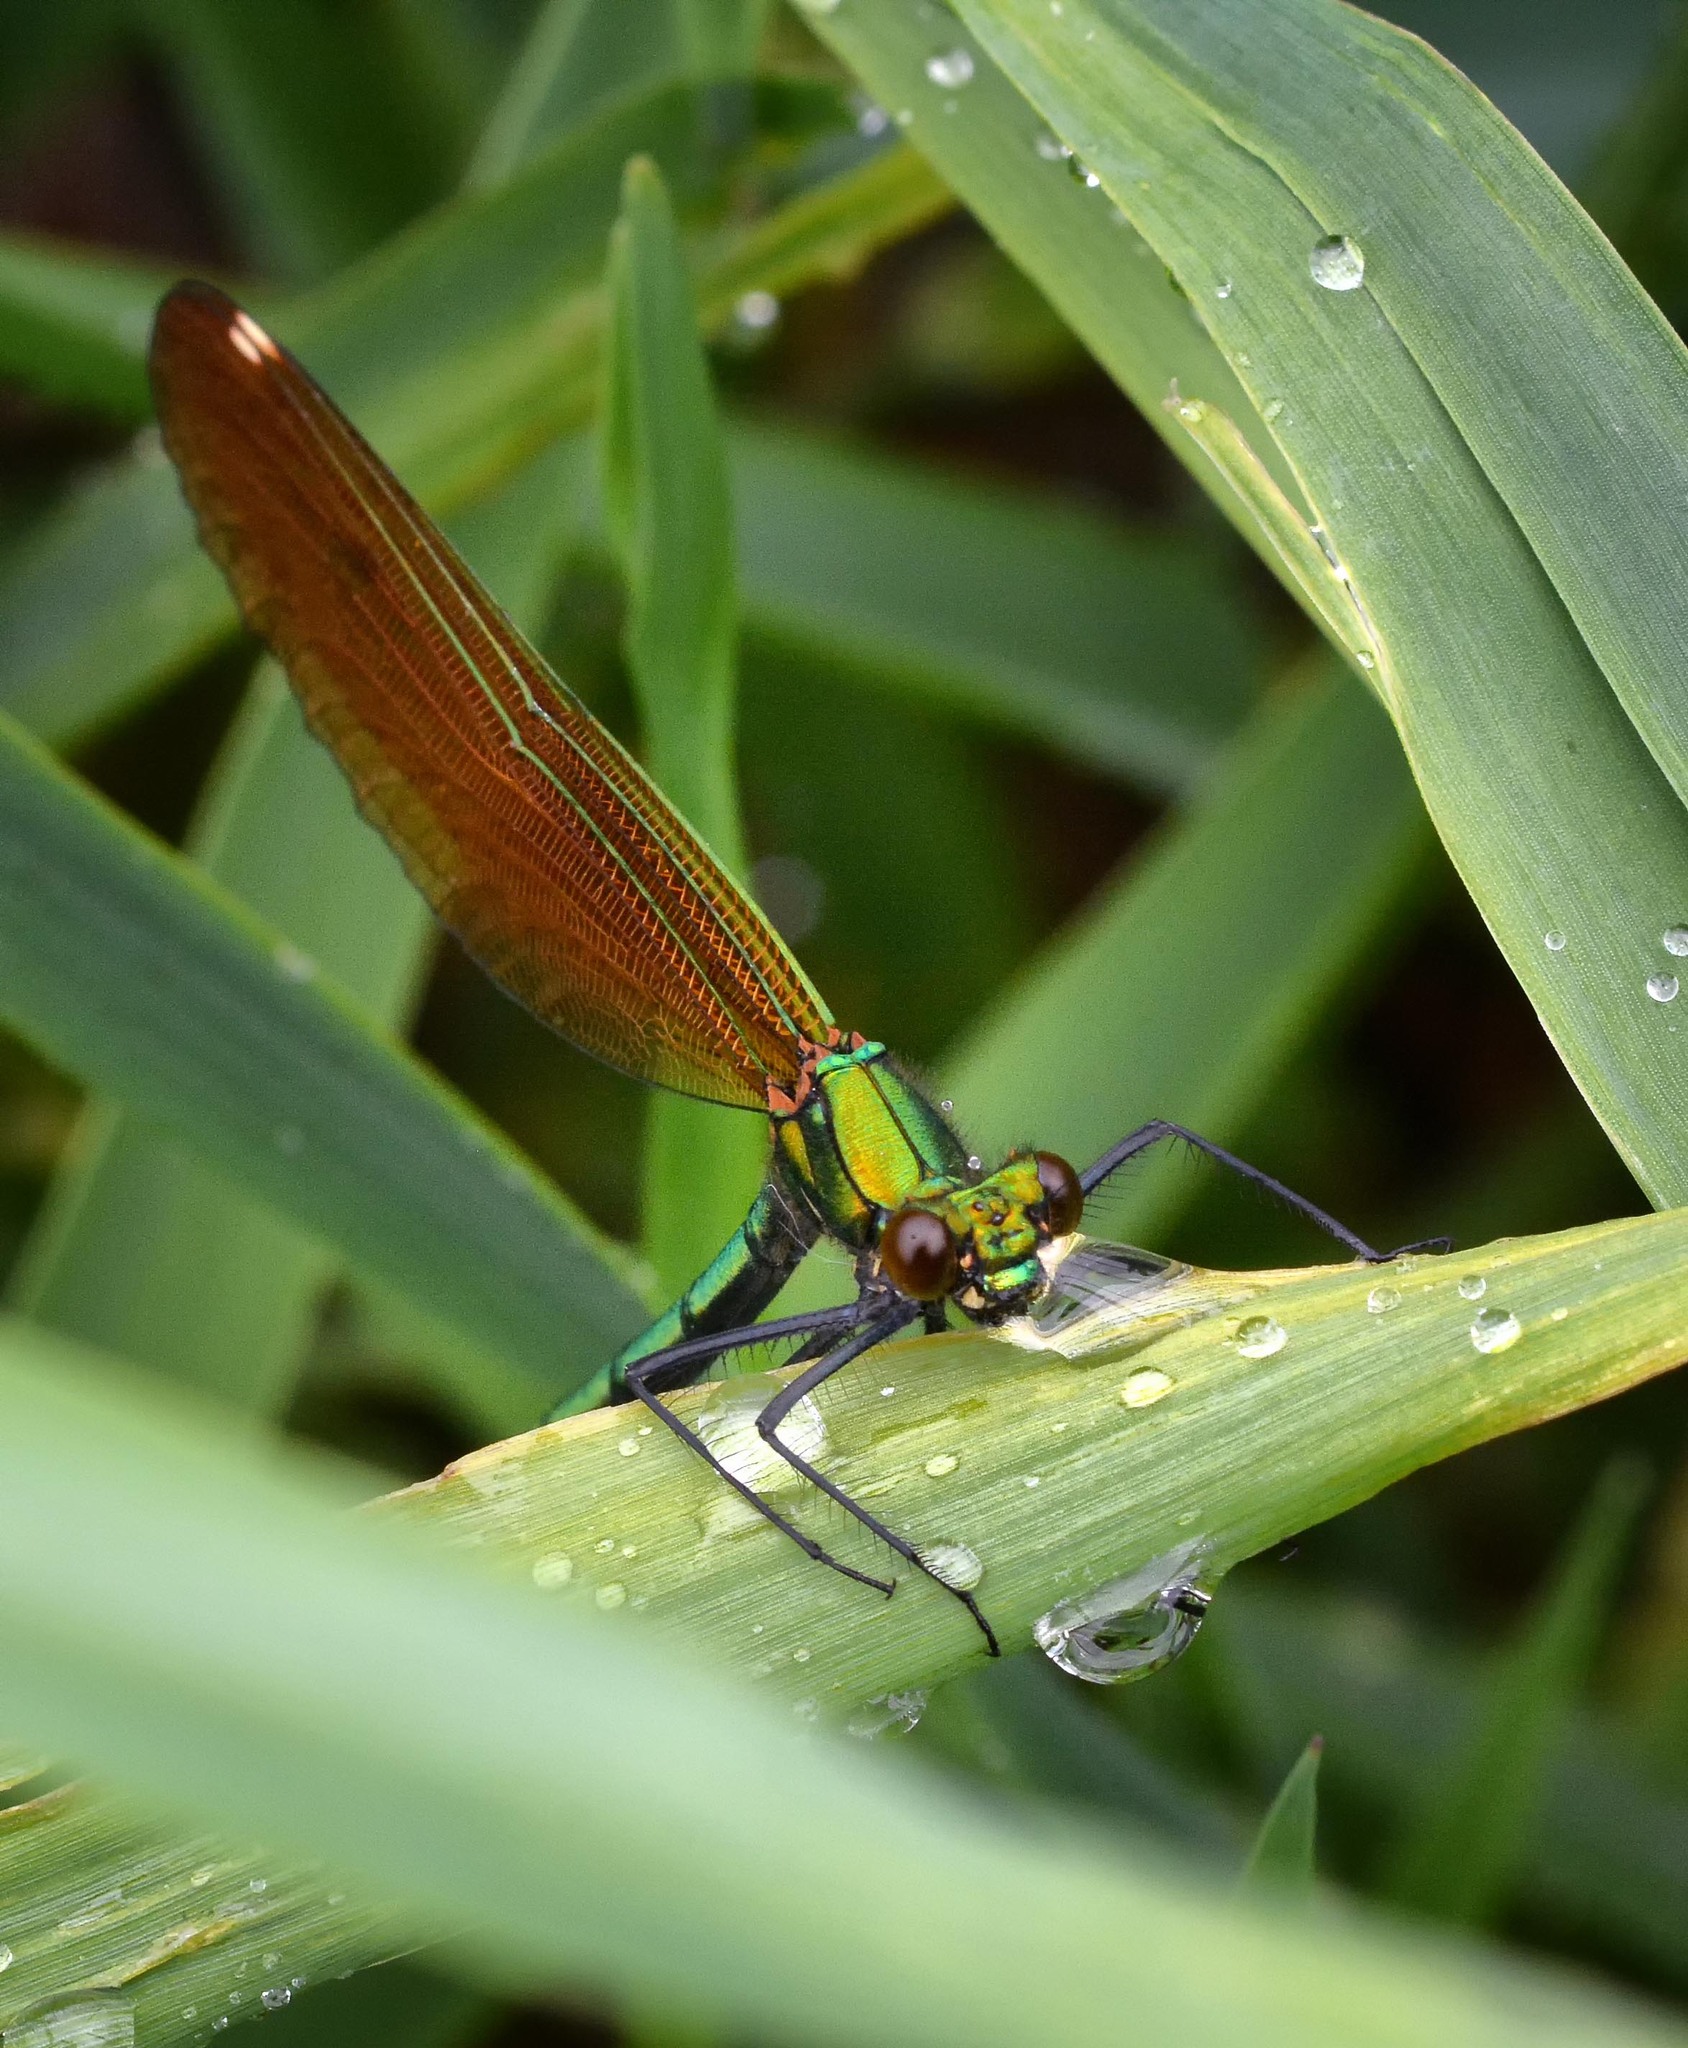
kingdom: Animalia
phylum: Arthropoda
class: Insecta
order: Odonata
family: Calopterygidae
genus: Calopteryx
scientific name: Calopteryx virgo
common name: Beautiful demoiselle
